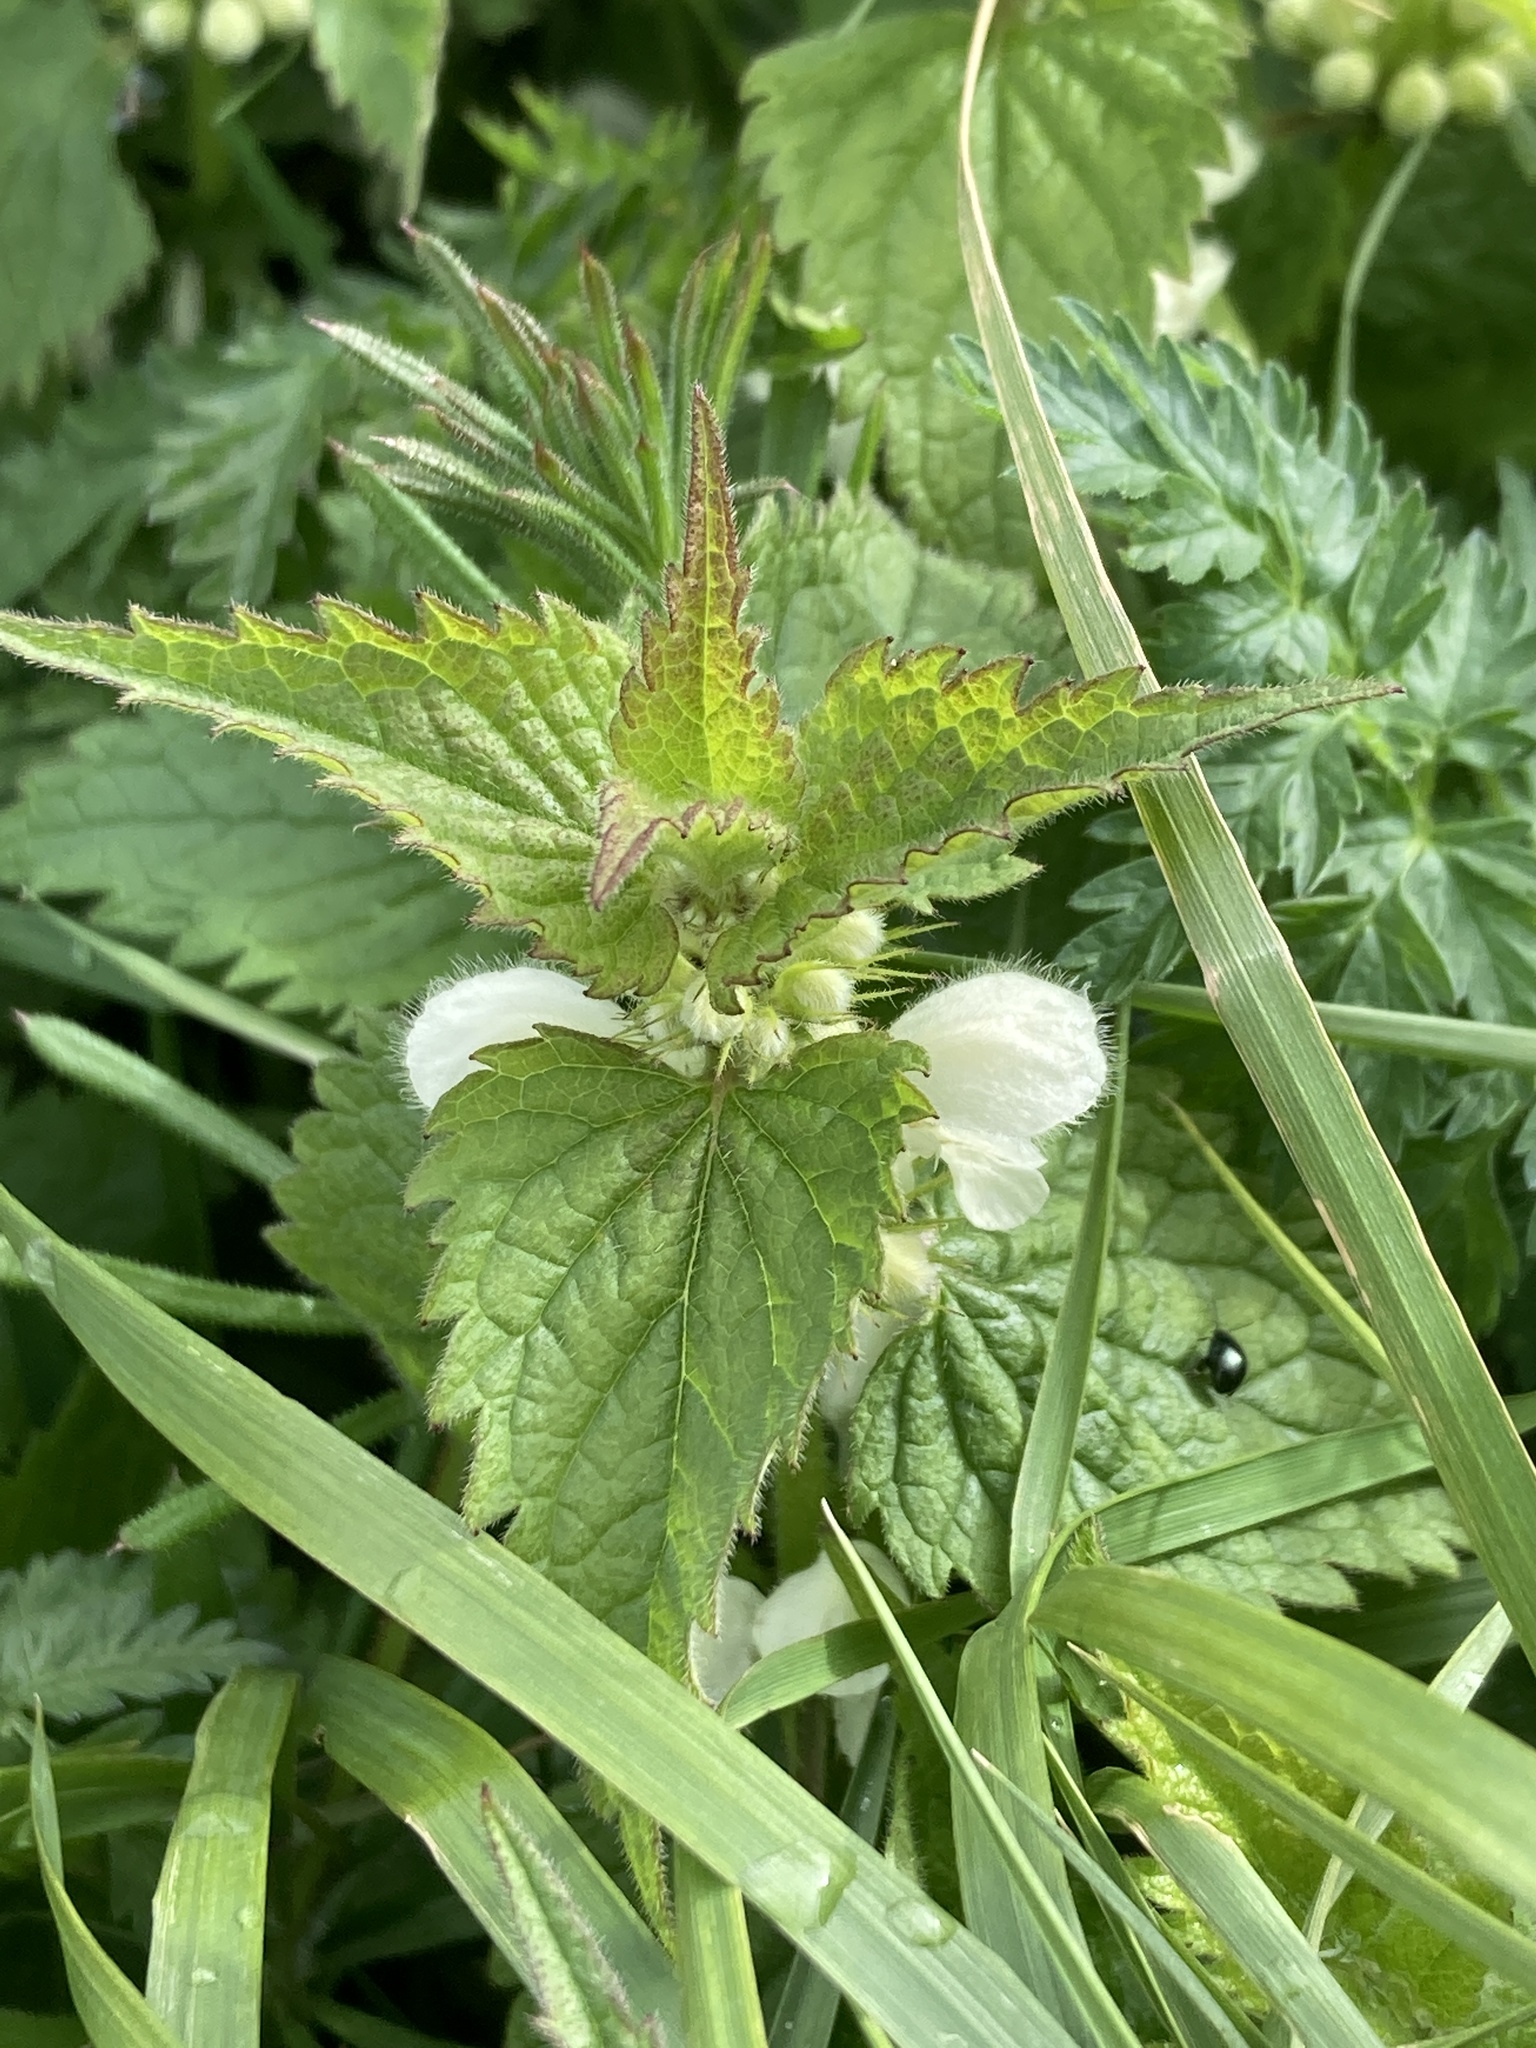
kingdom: Plantae
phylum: Tracheophyta
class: Magnoliopsida
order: Lamiales
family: Lamiaceae
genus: Lamium
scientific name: Lamium album
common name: White dead-nettle
